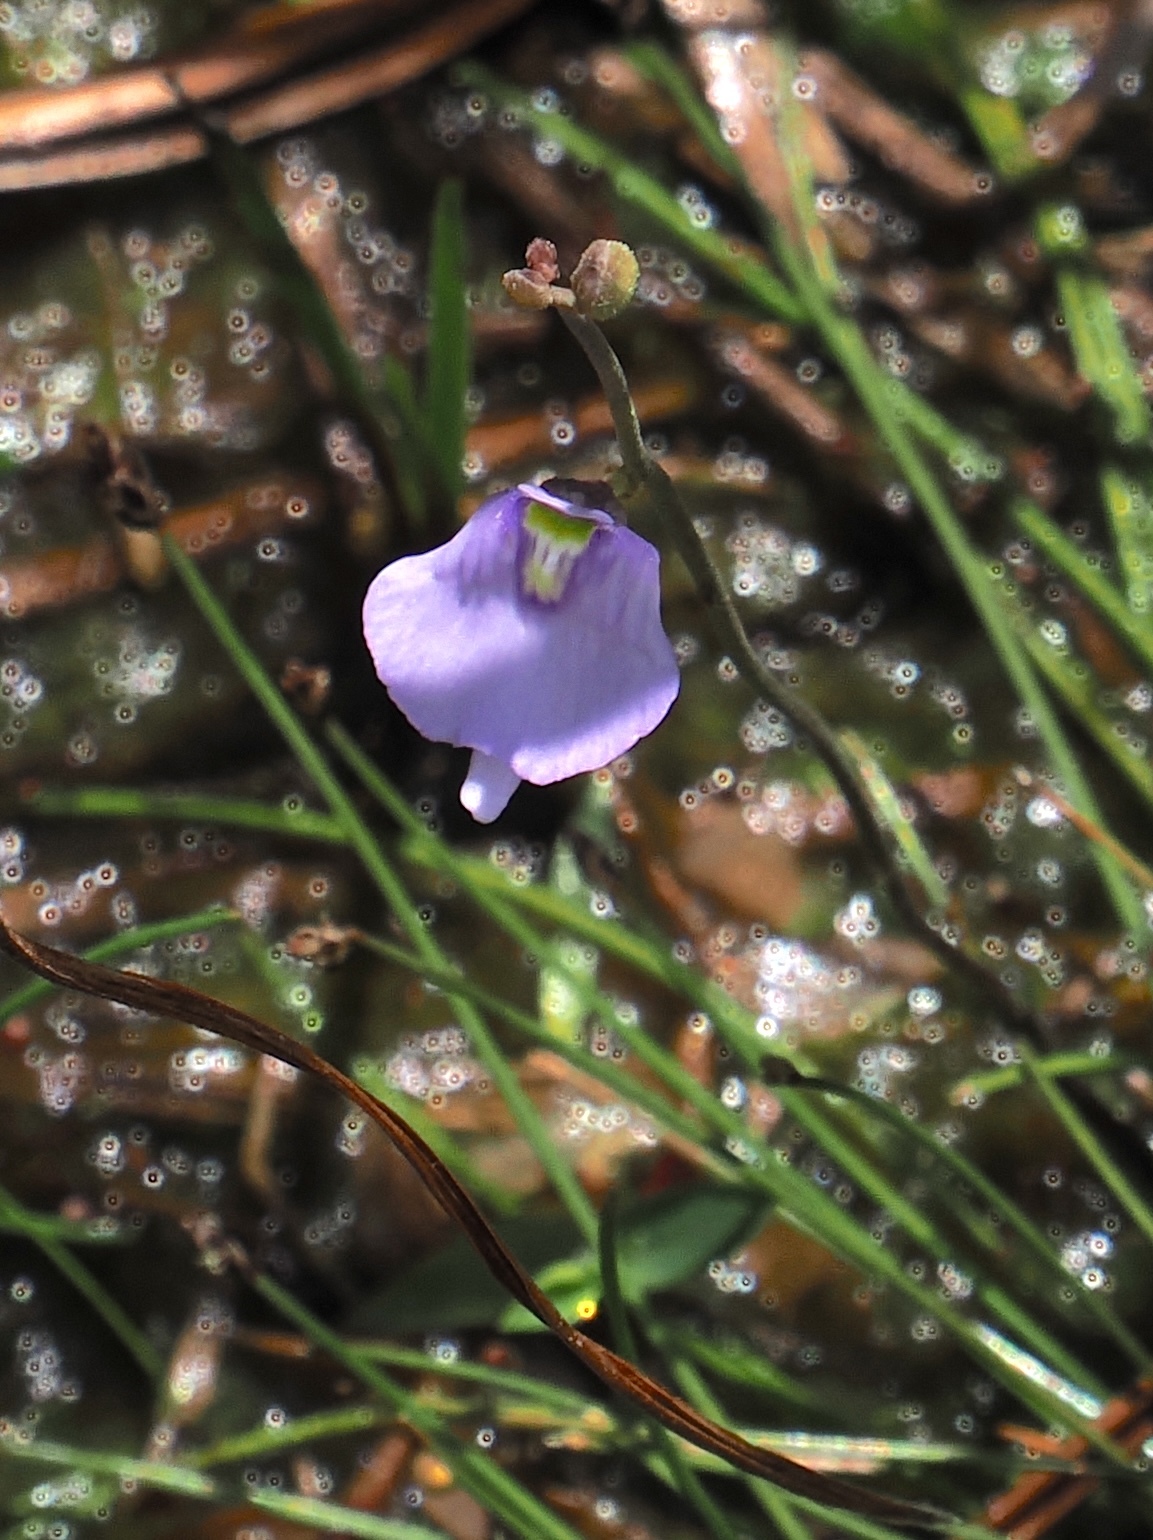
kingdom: Plantae
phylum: Tracheophyta
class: Magnoliopsida
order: Lamiales
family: Lentibulariaceae
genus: Utricularia
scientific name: Utricularia pubescens
